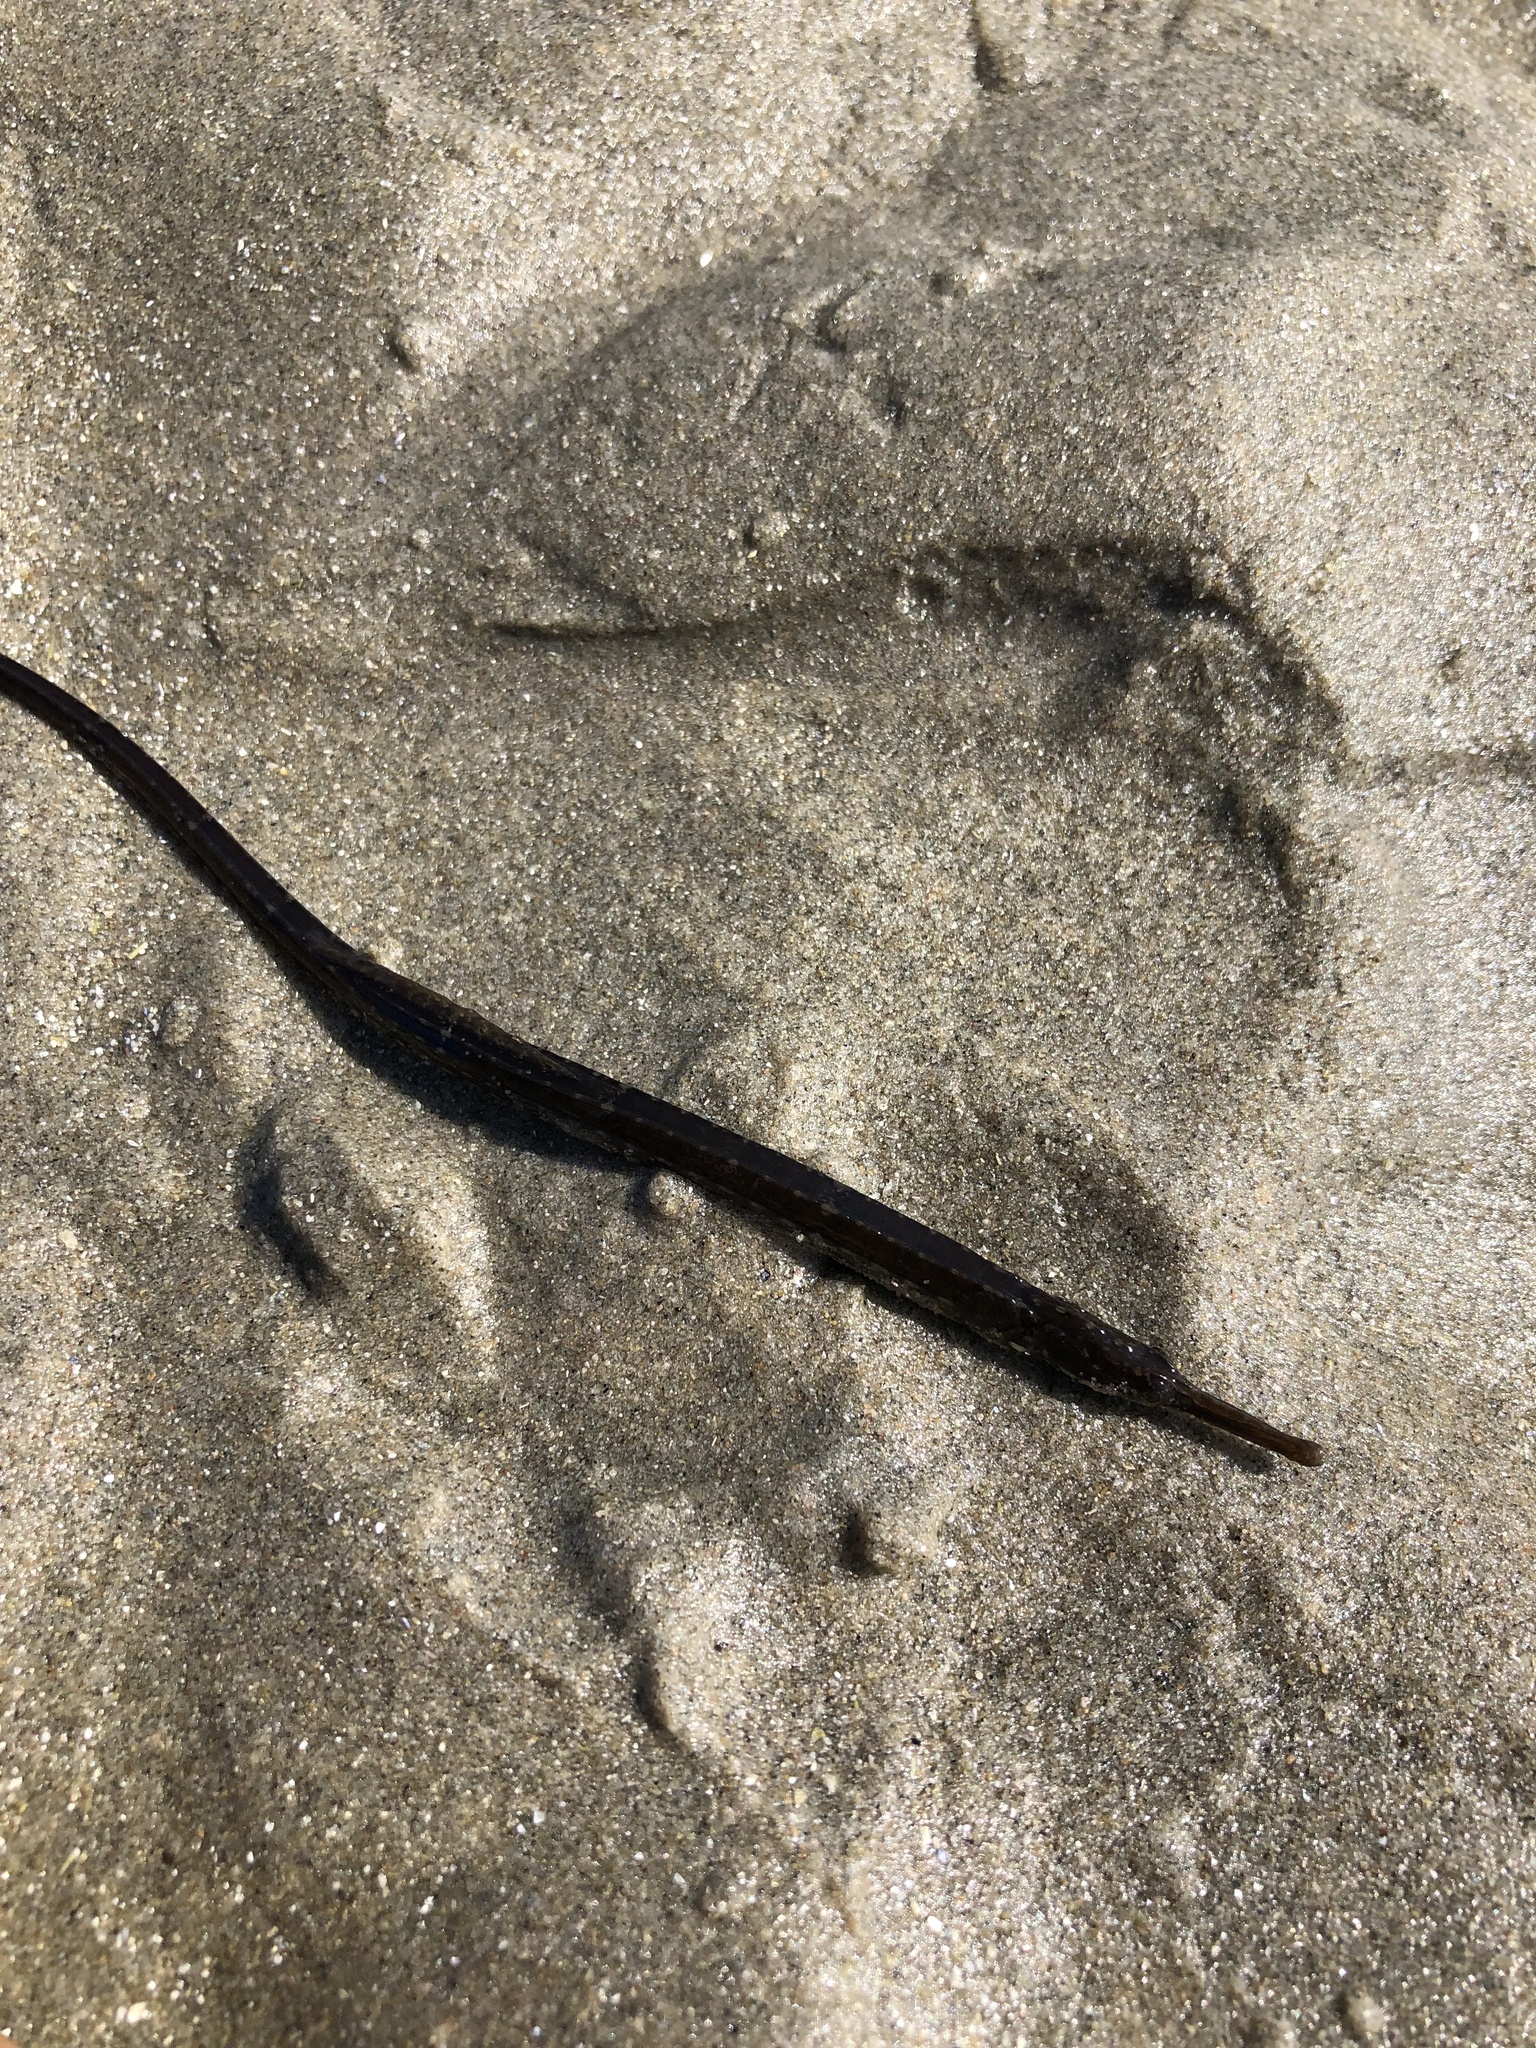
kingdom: Animalia
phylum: Chordata
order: Syngnathiformes
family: Syngnathidae
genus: Syngnathus
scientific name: Syngnathus fuscus
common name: Northern pipefish
